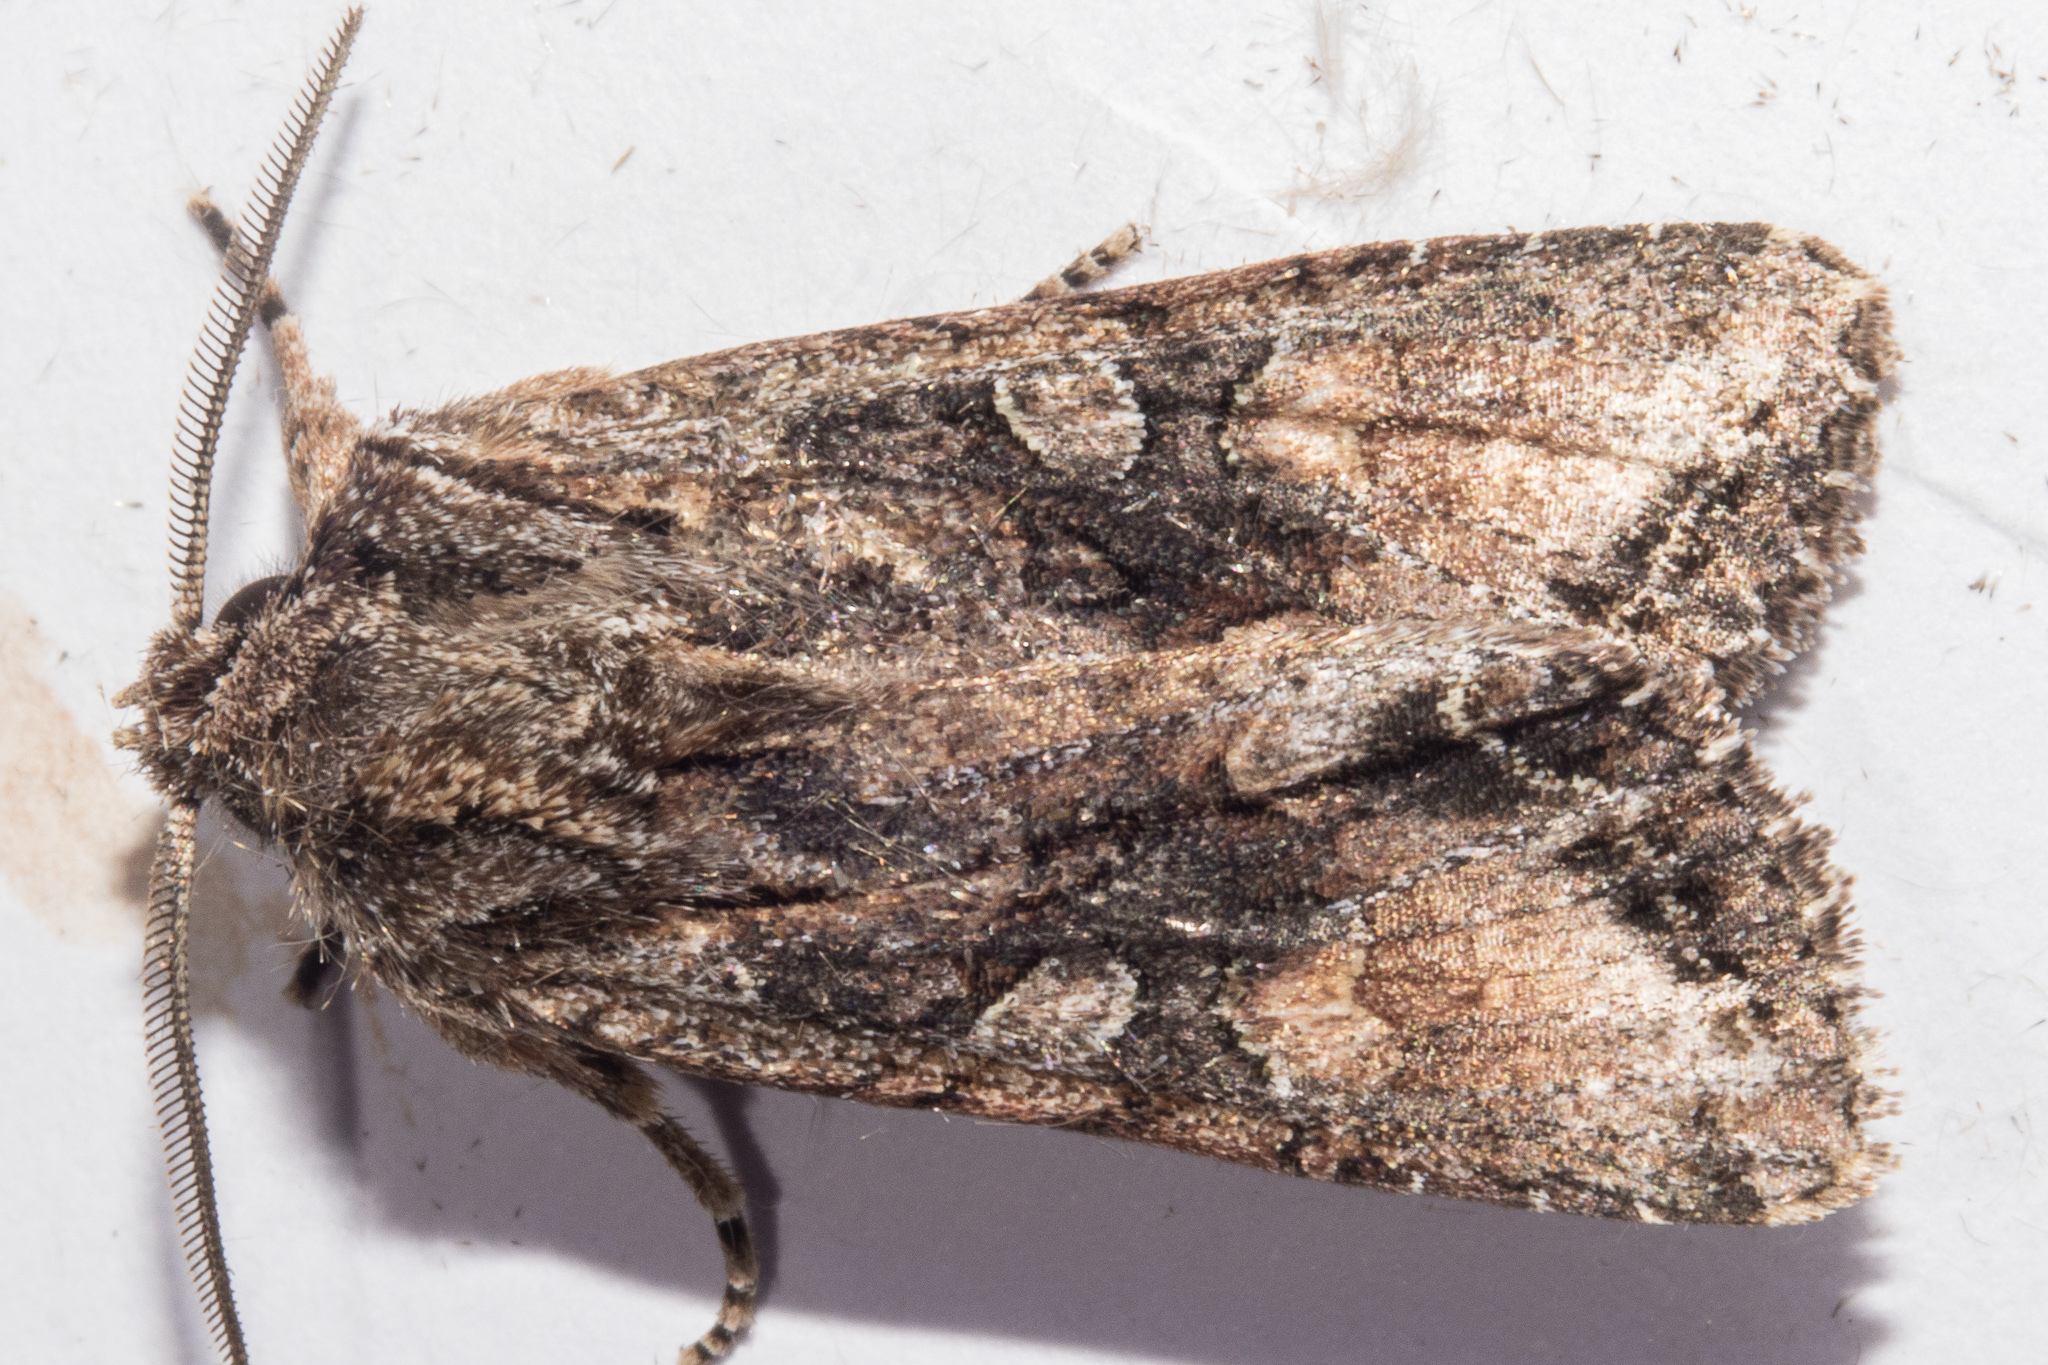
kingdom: Animalia
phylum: Arthropoda
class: Insecta
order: Lepidoptera
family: Noctuidae
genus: Ichneutica
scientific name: Ichneutica mutans
